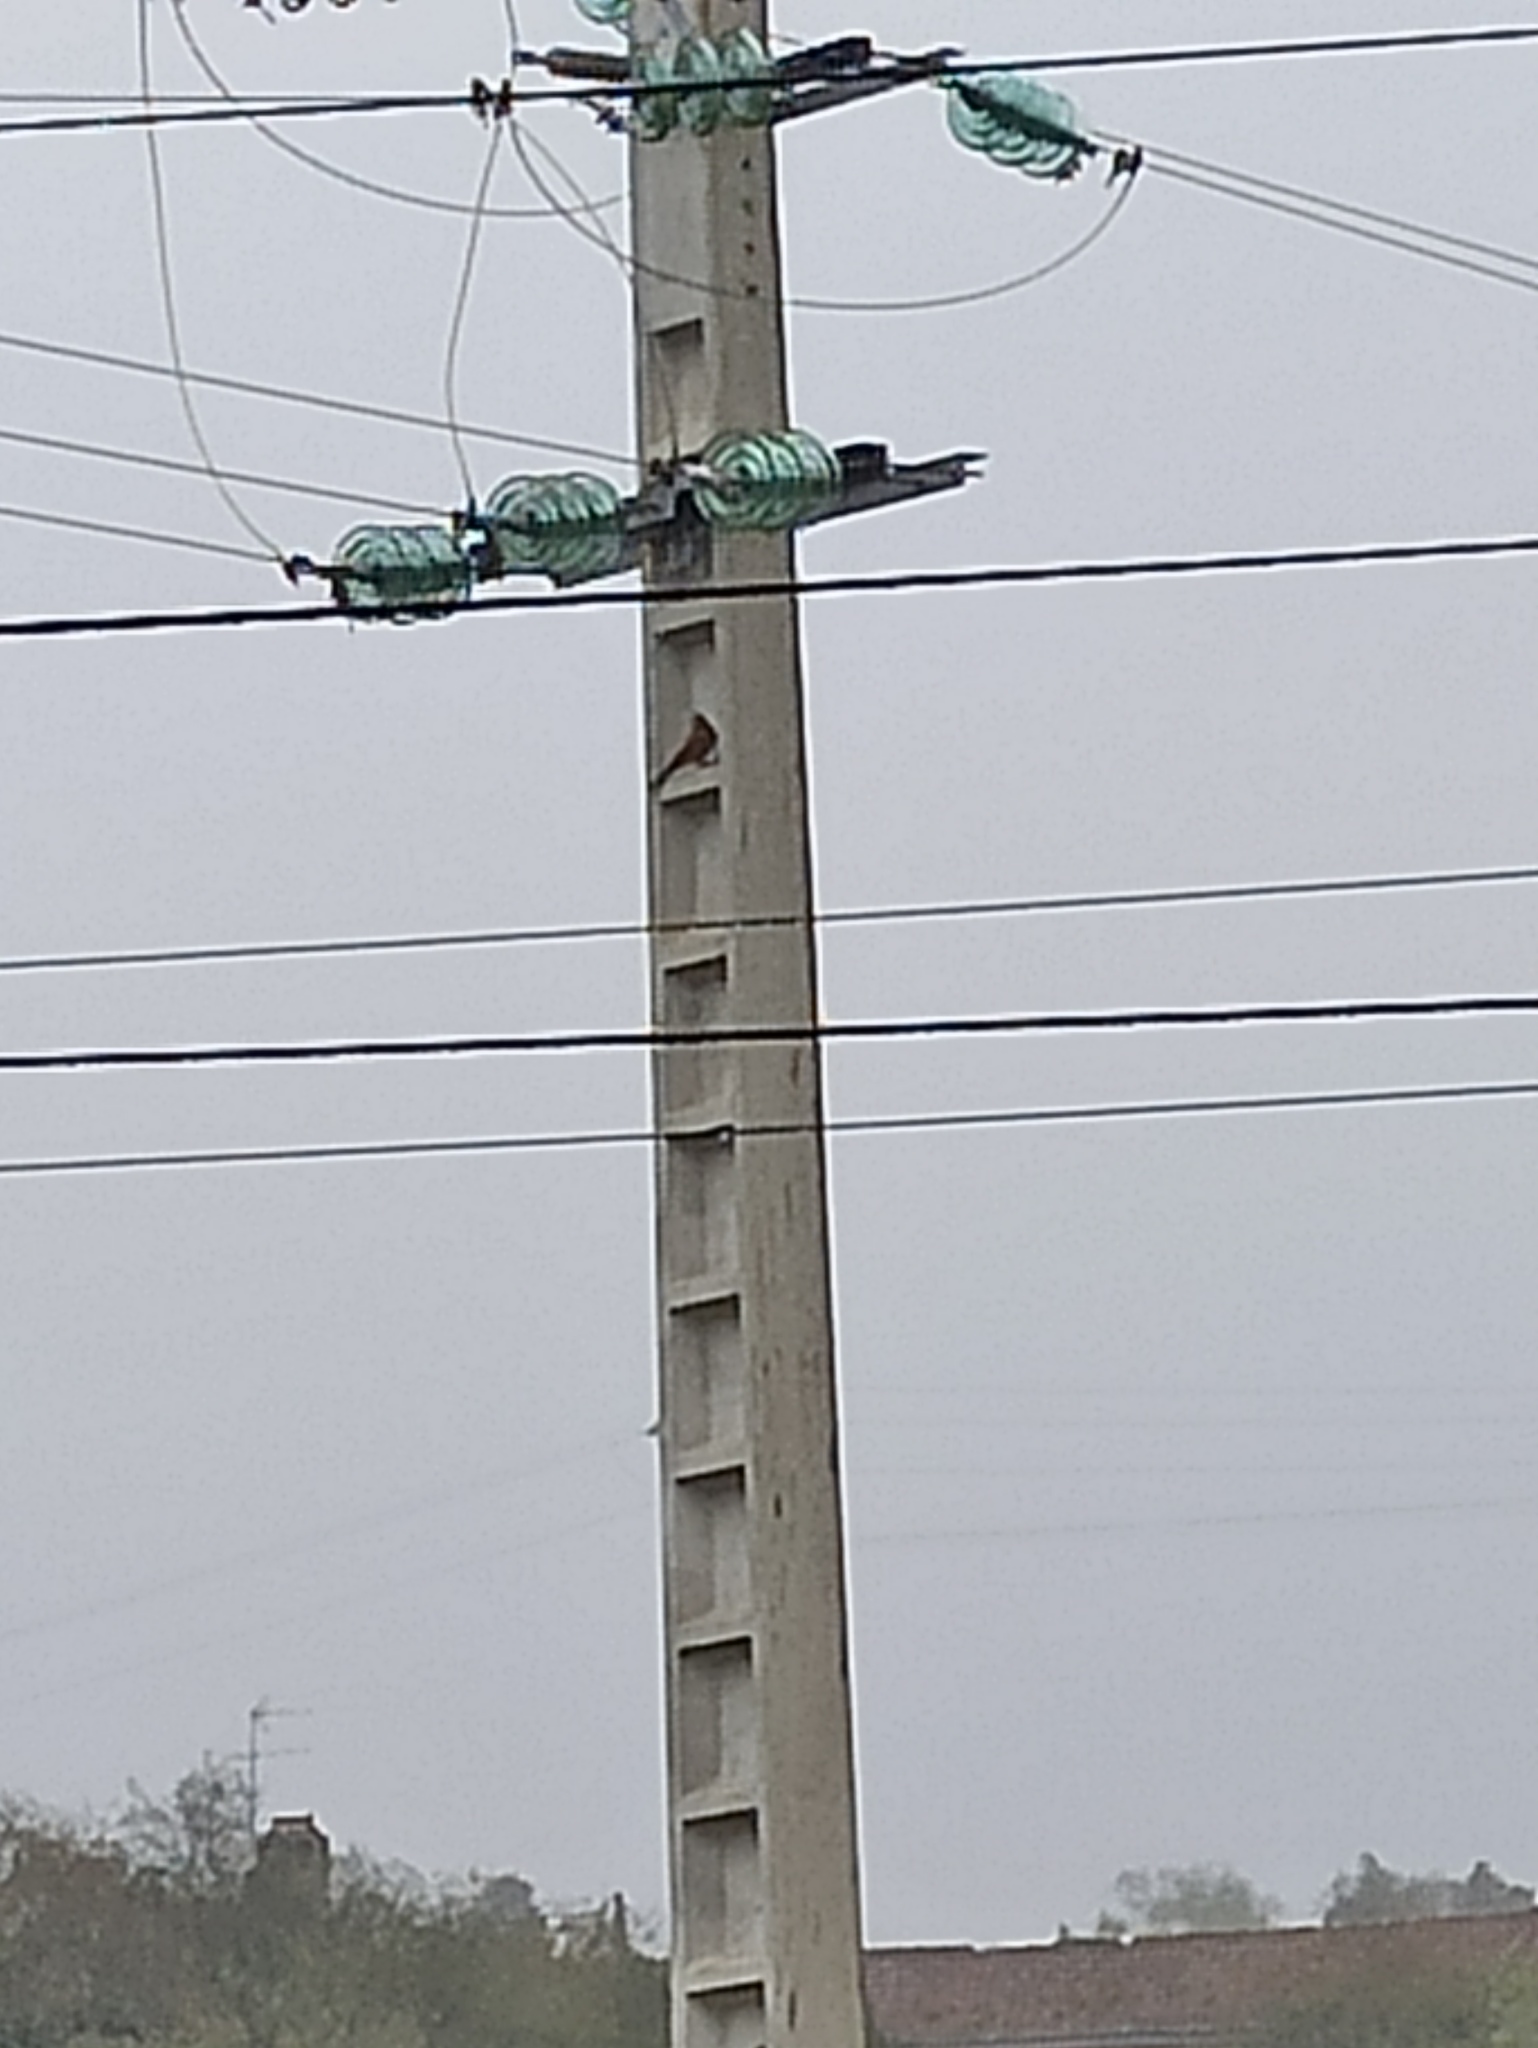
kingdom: Animalia
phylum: Chordata
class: Aves
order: Falconiformes
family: Falconidae
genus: Falco
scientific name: Falco tinnunculus
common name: Common kestrel
